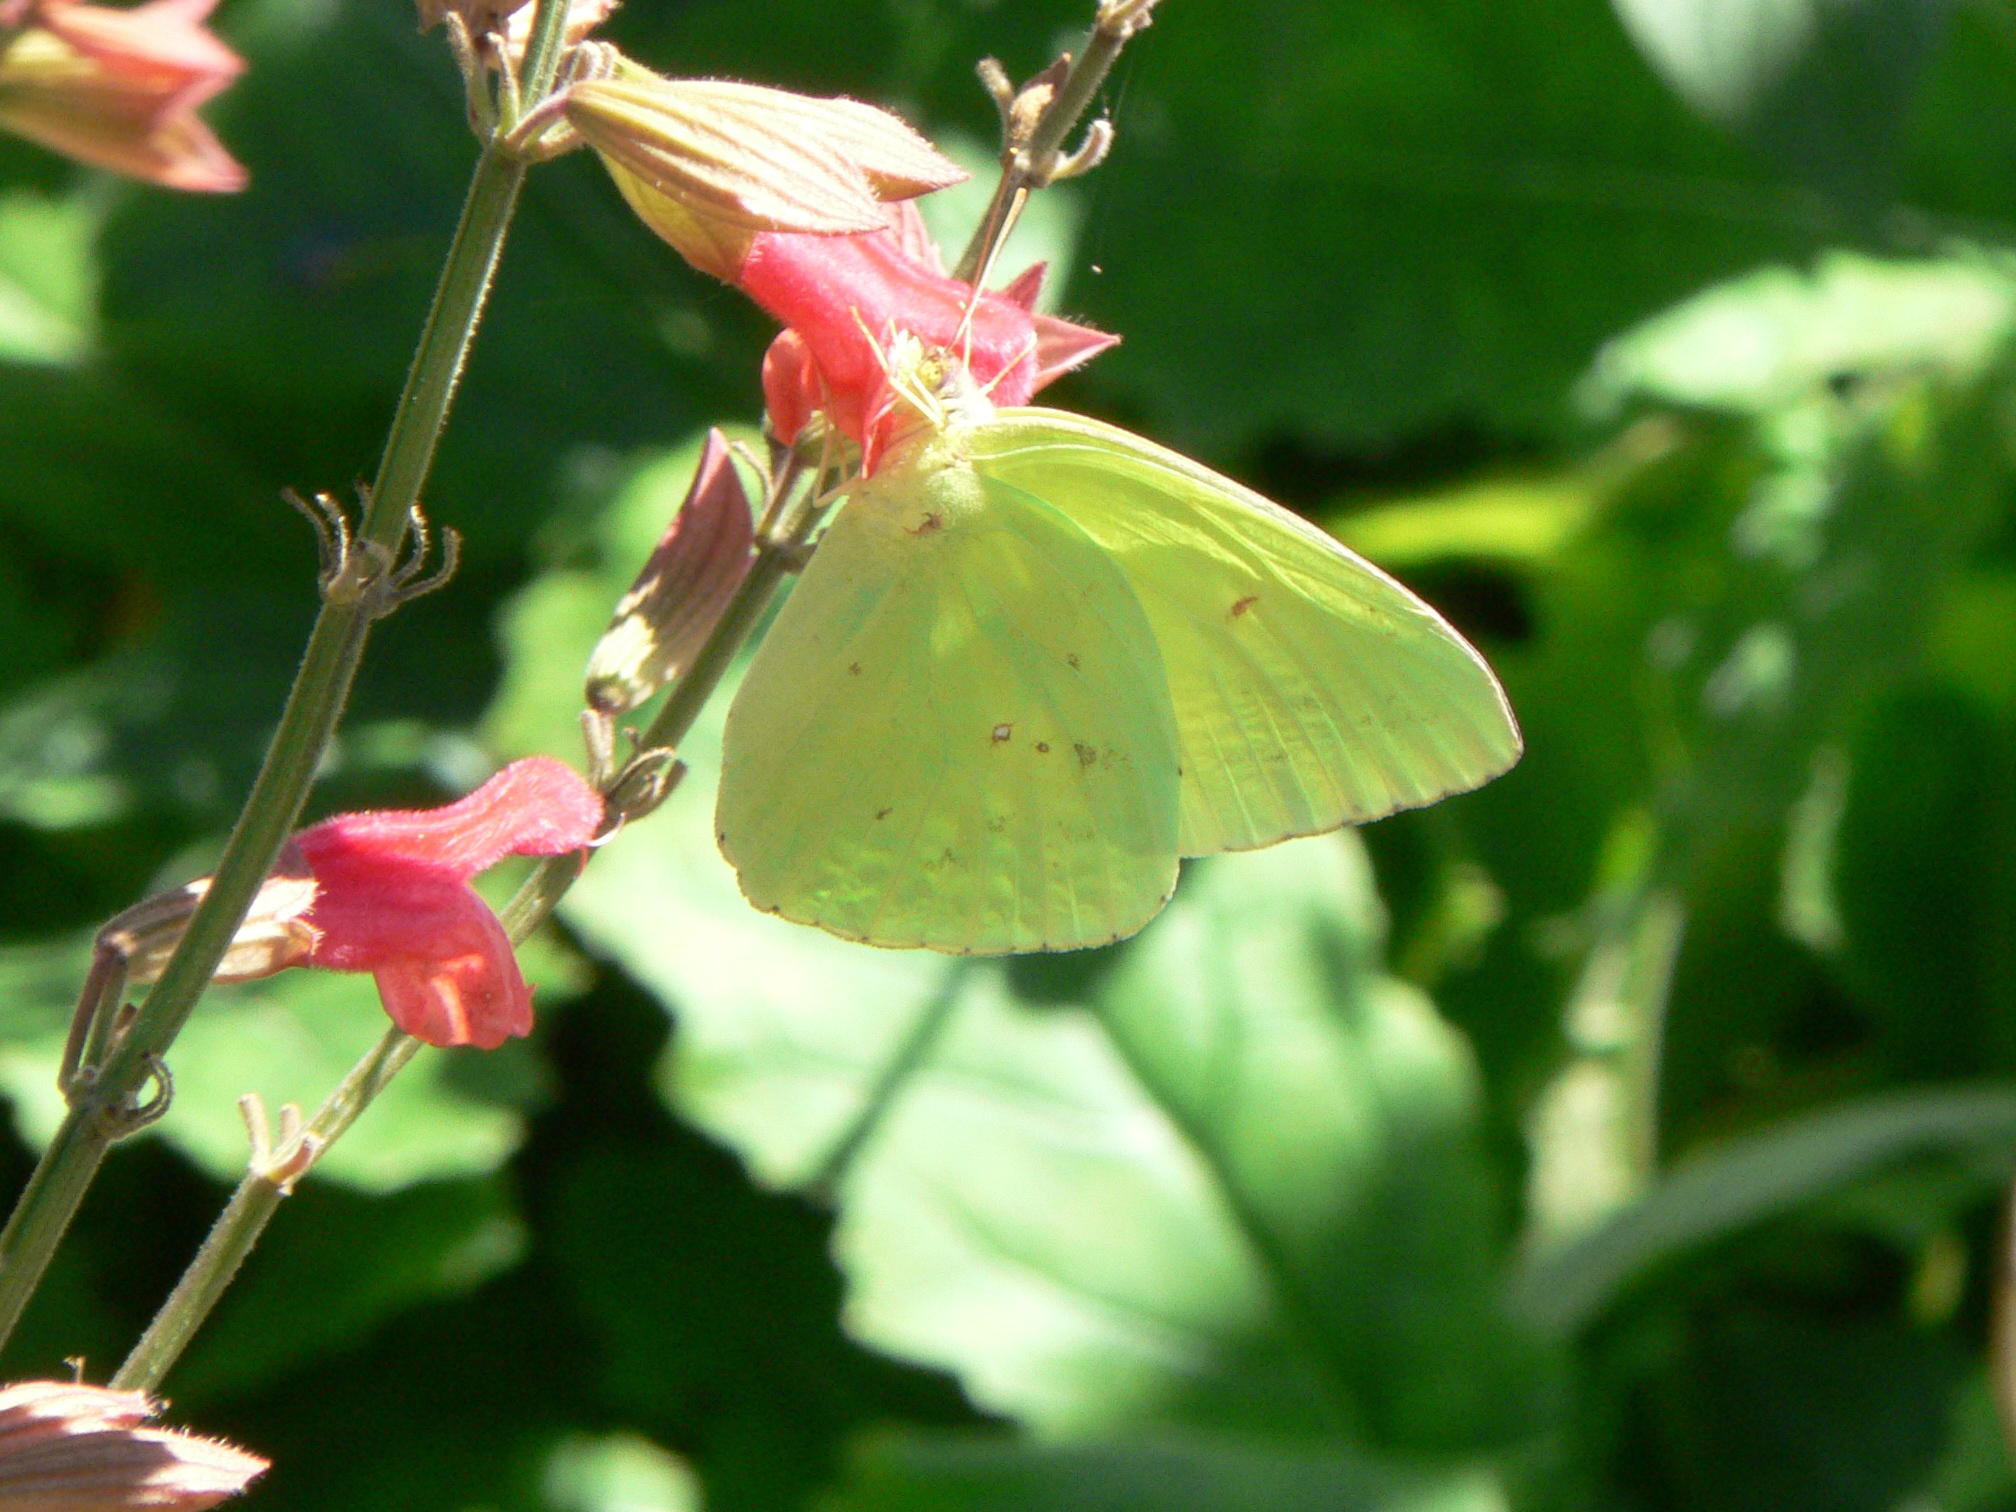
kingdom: Animalia
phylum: Arthropoda
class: Insecta
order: Lepidoptera
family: Pieridae
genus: Phoebis
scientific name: Phoebis sennae
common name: Cloudless sulphur
